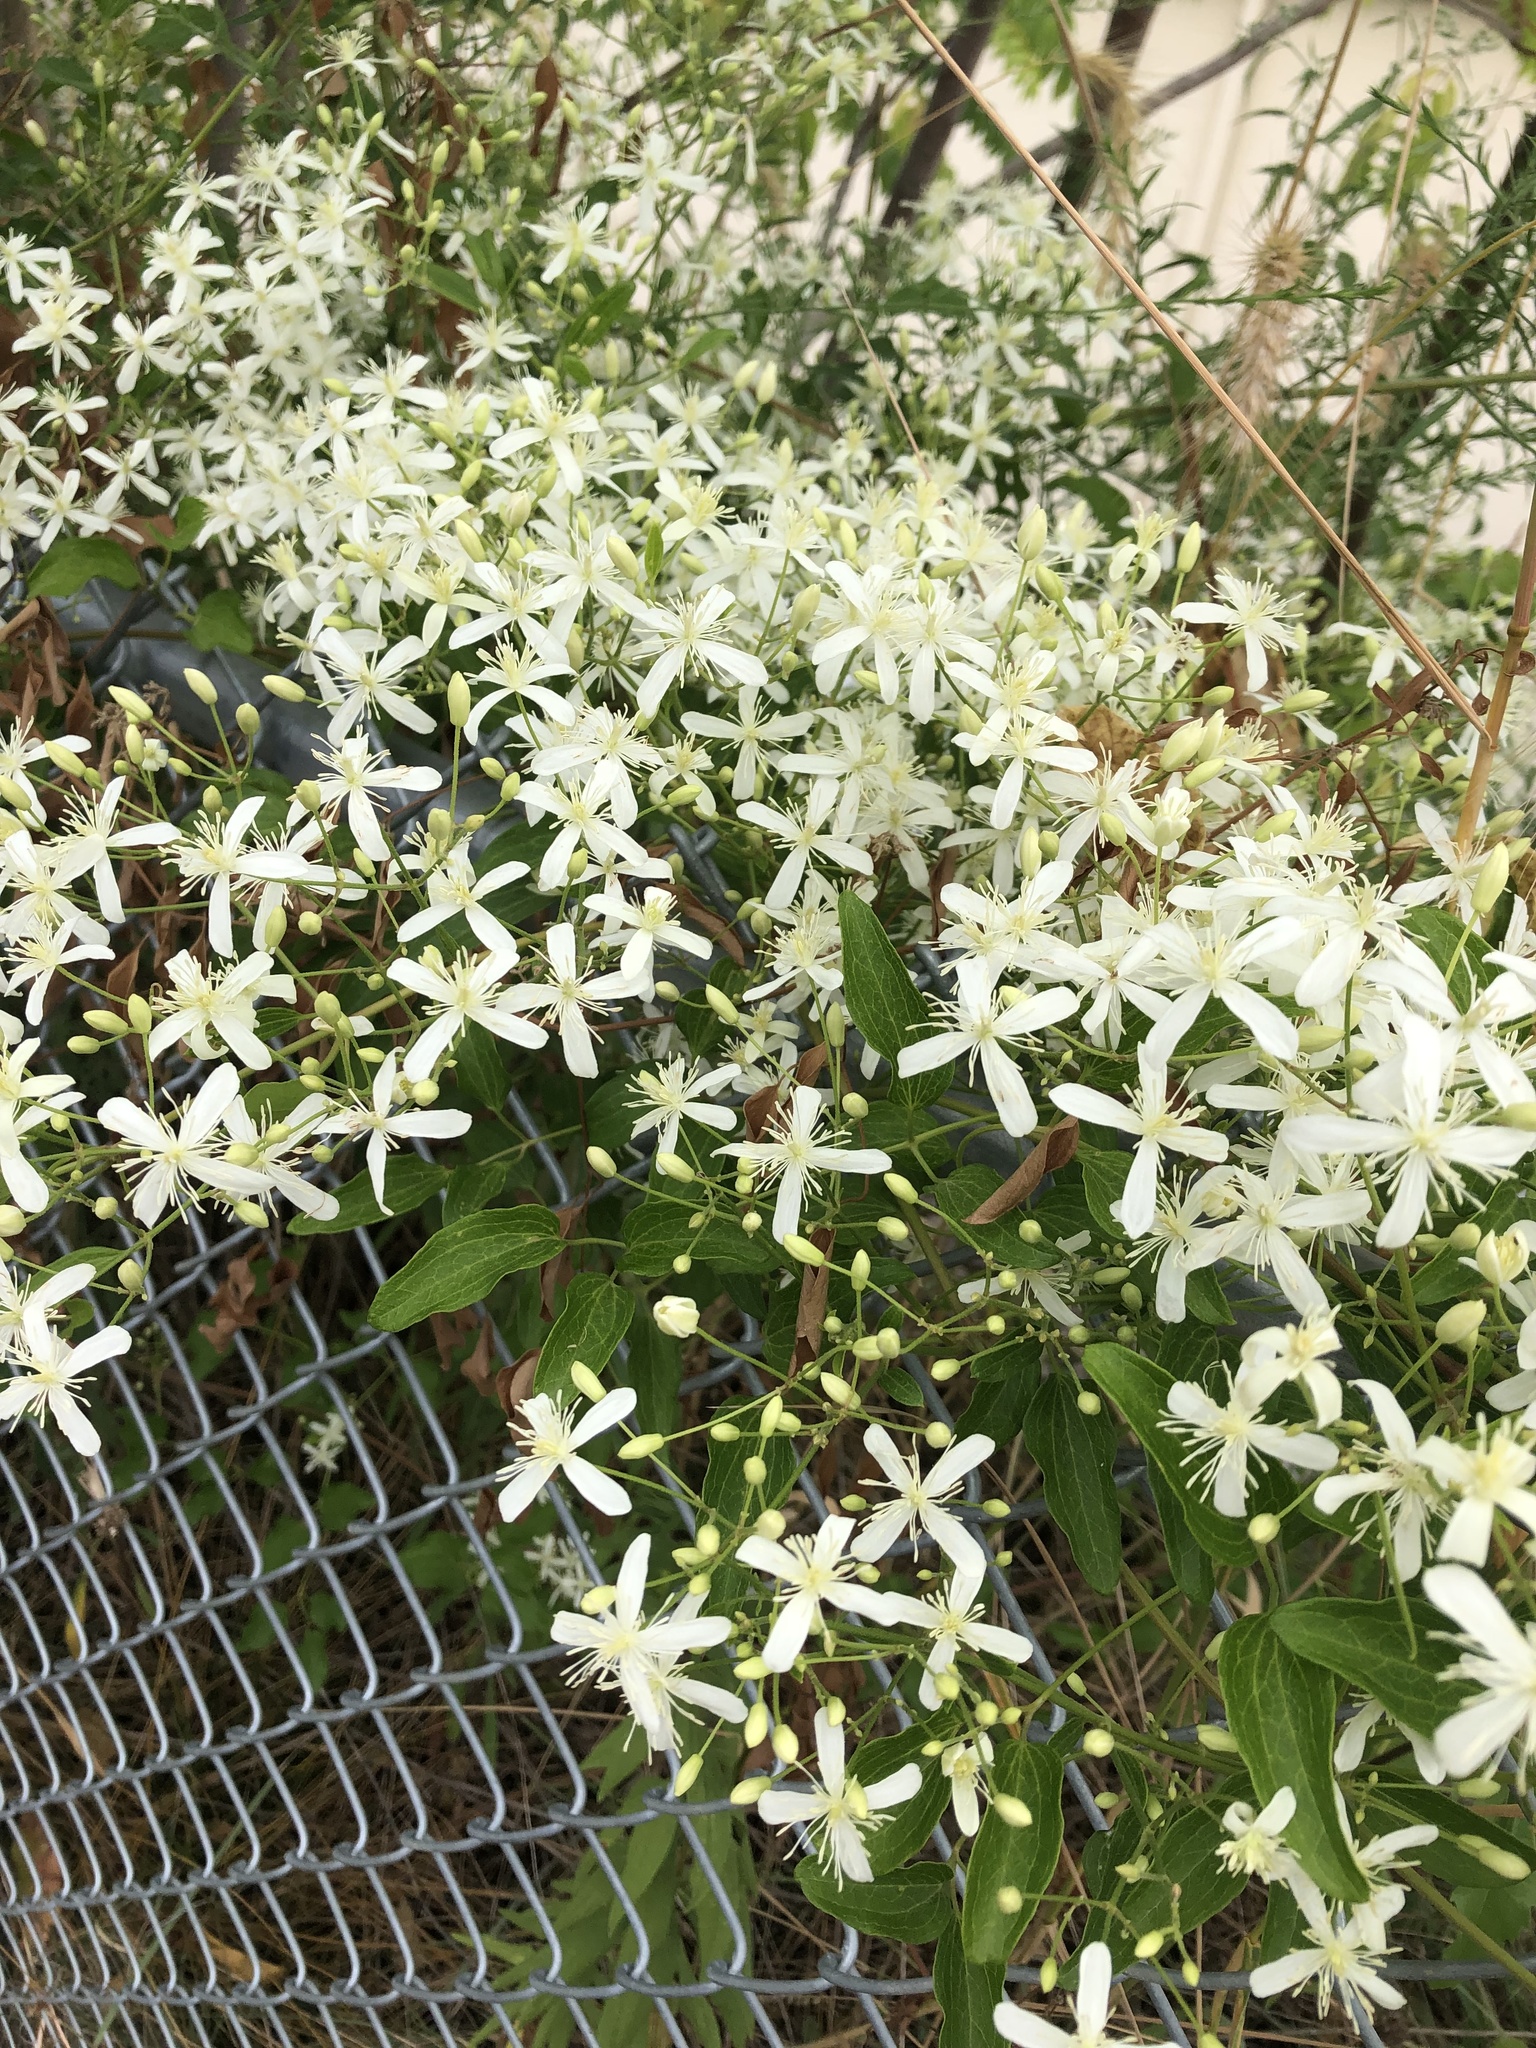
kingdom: Plantae
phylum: Tracheophyta
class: Magnoliopsida
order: Ranunculales
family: Ranunculaceae
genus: Clematis
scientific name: Clematis terniflora
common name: Sweet autumn clematis
